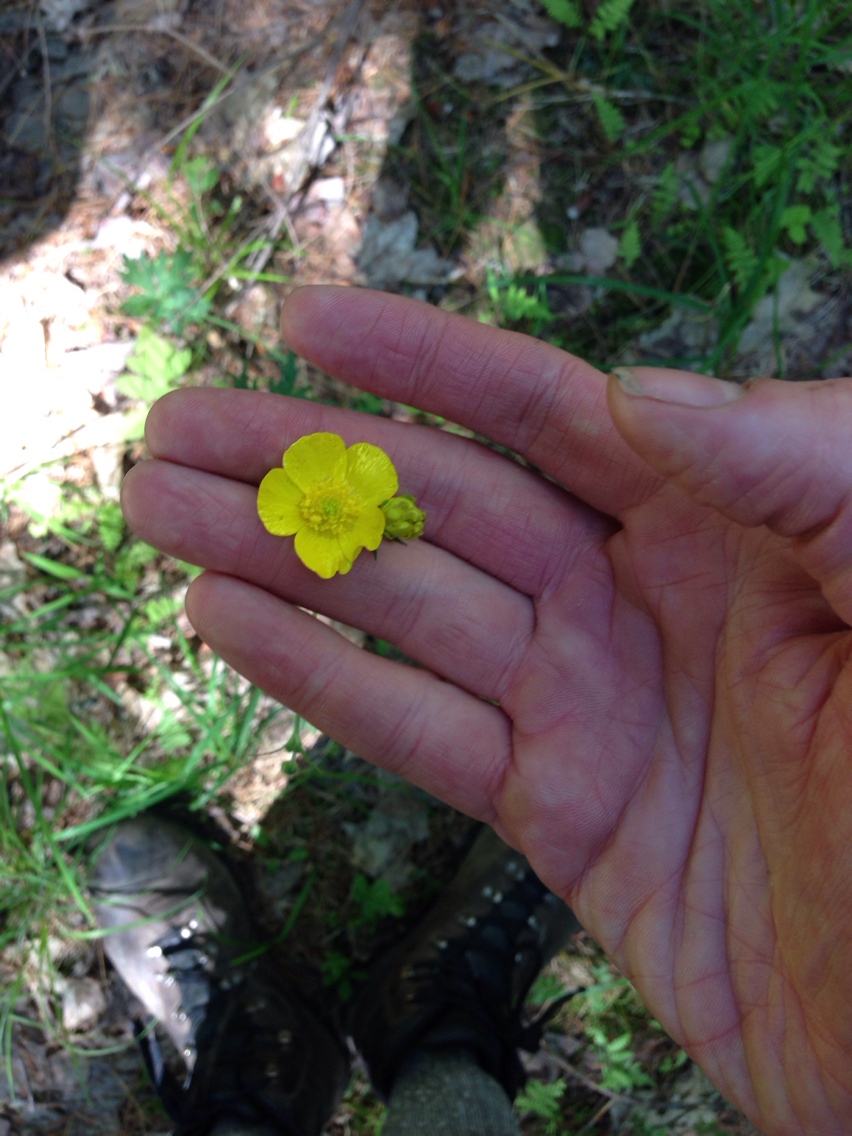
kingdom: Plantae
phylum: Tracheophyta
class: Magnoliopsida
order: Ranunculales
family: Ranunculaceae
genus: Ranunculus
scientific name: Ranunculus acris
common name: Meadow buttercup
